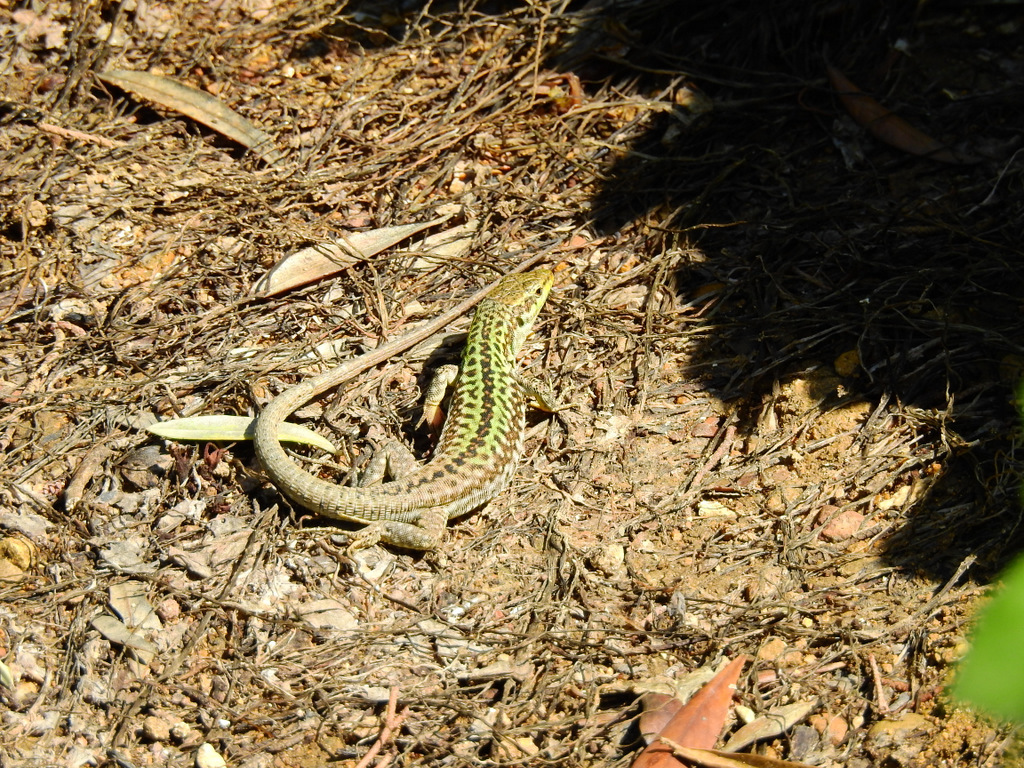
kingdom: Animalia
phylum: Chordata
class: Squamata
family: Lacertidae
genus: Podarcis
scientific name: Podarcis siculus
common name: Italian wall lizard
